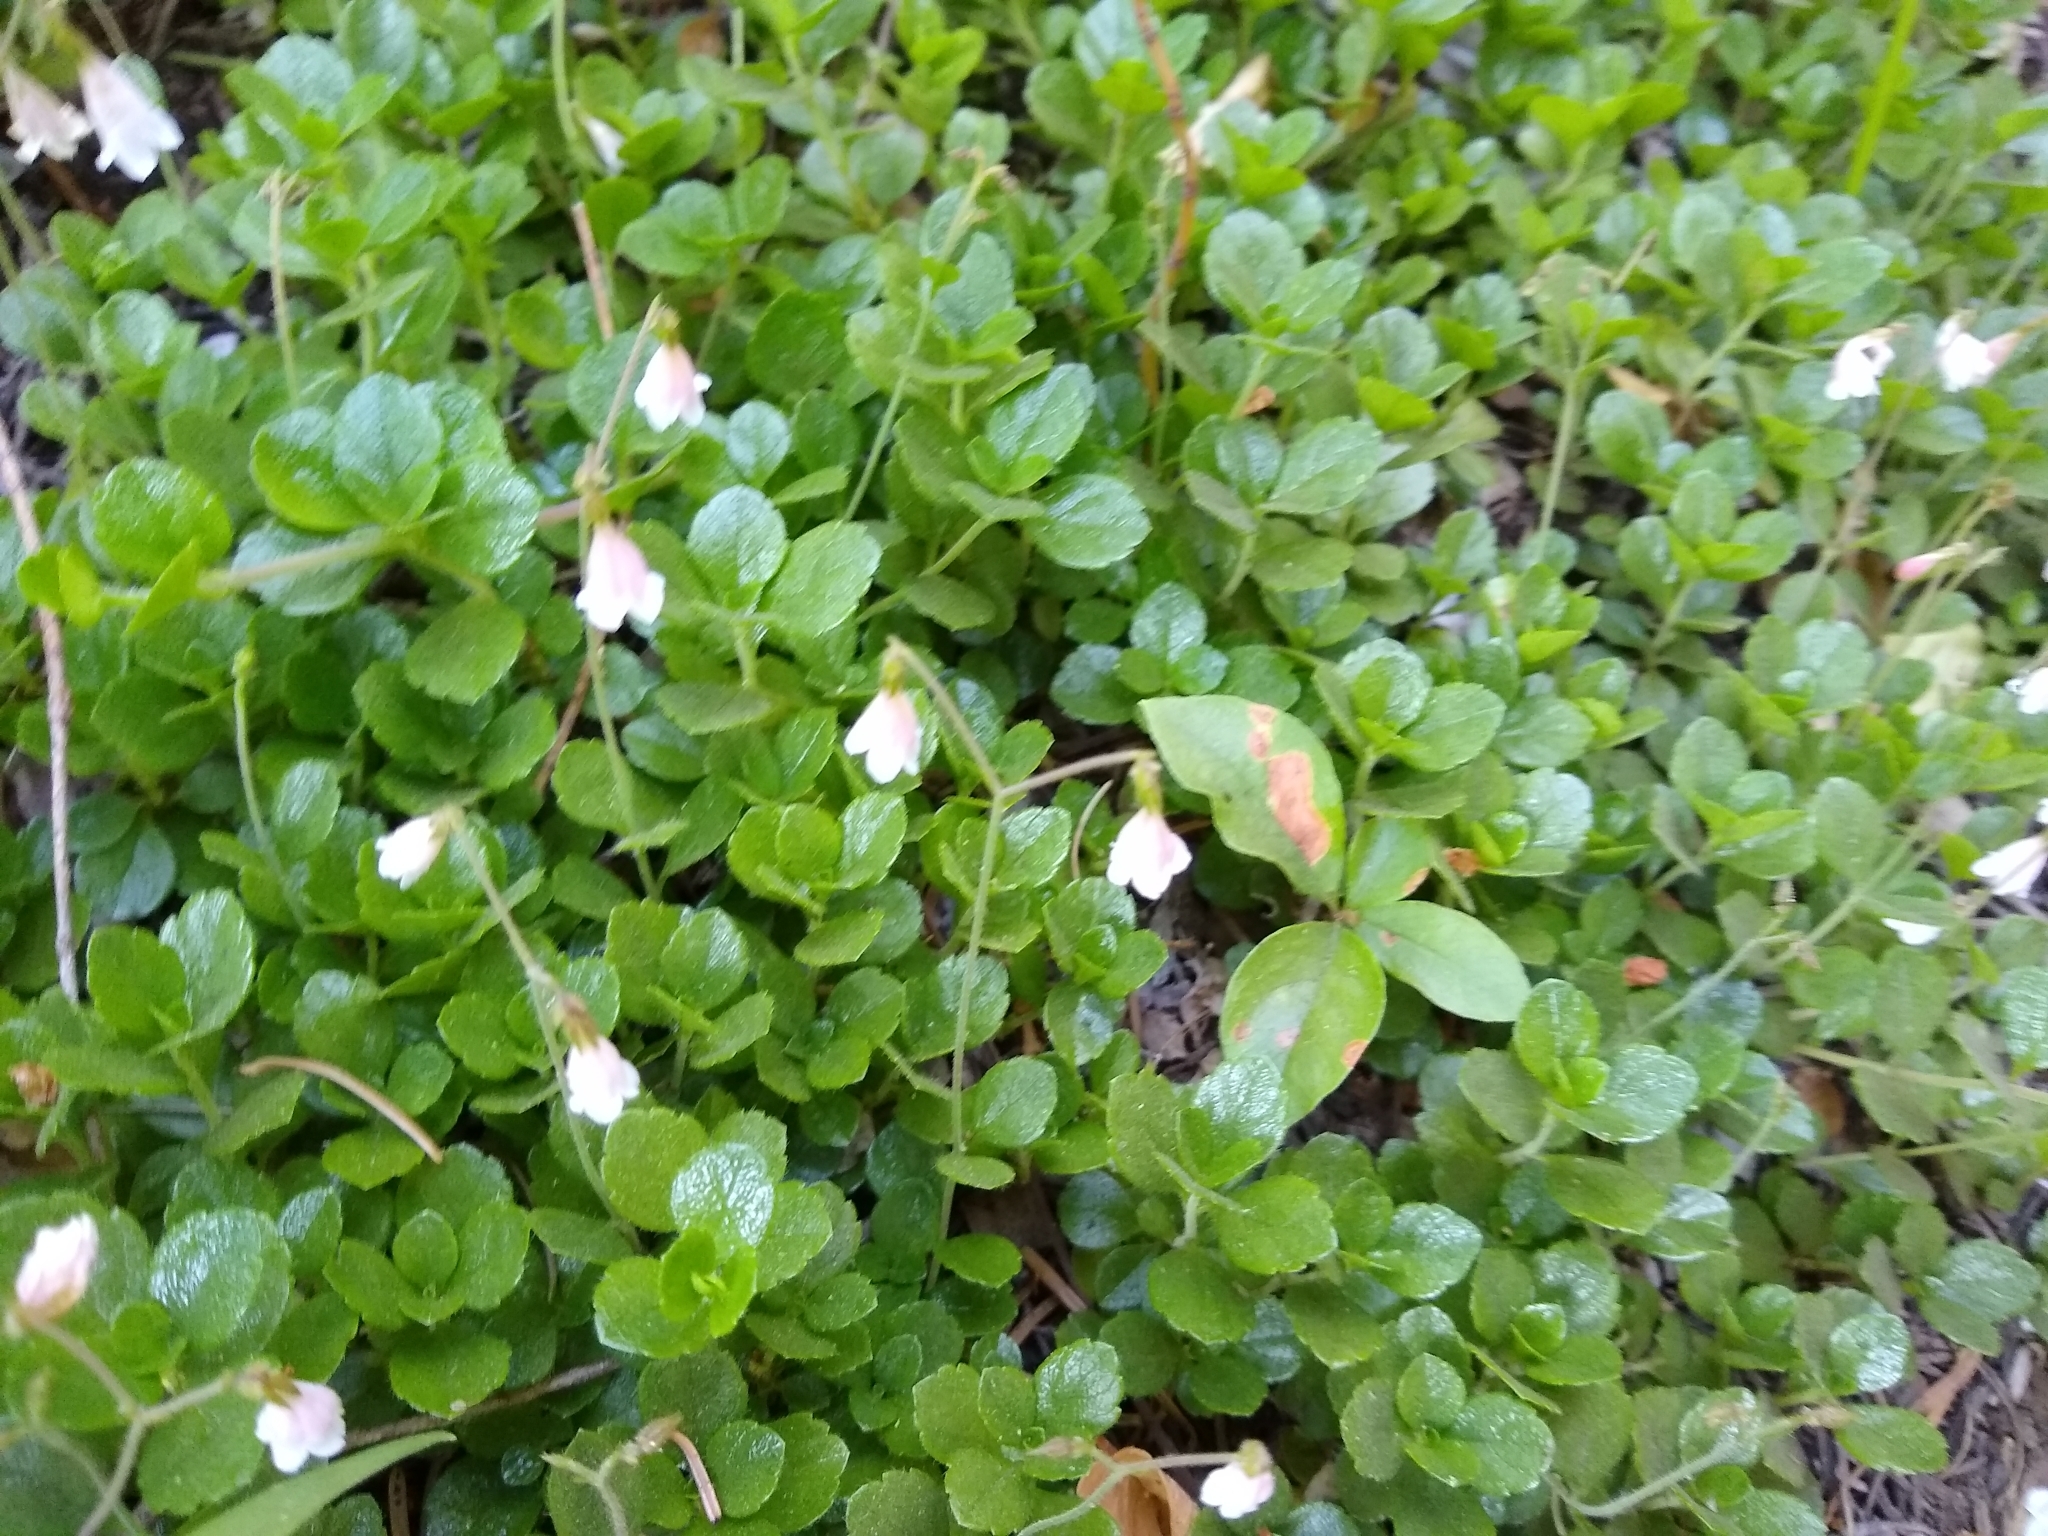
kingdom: Plantae
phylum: Tracheophyta
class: Magnoliopsida
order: Dipsacales
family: Caprifoliaceae
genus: Linnaea
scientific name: Linnaea borealis
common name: Twinflower
